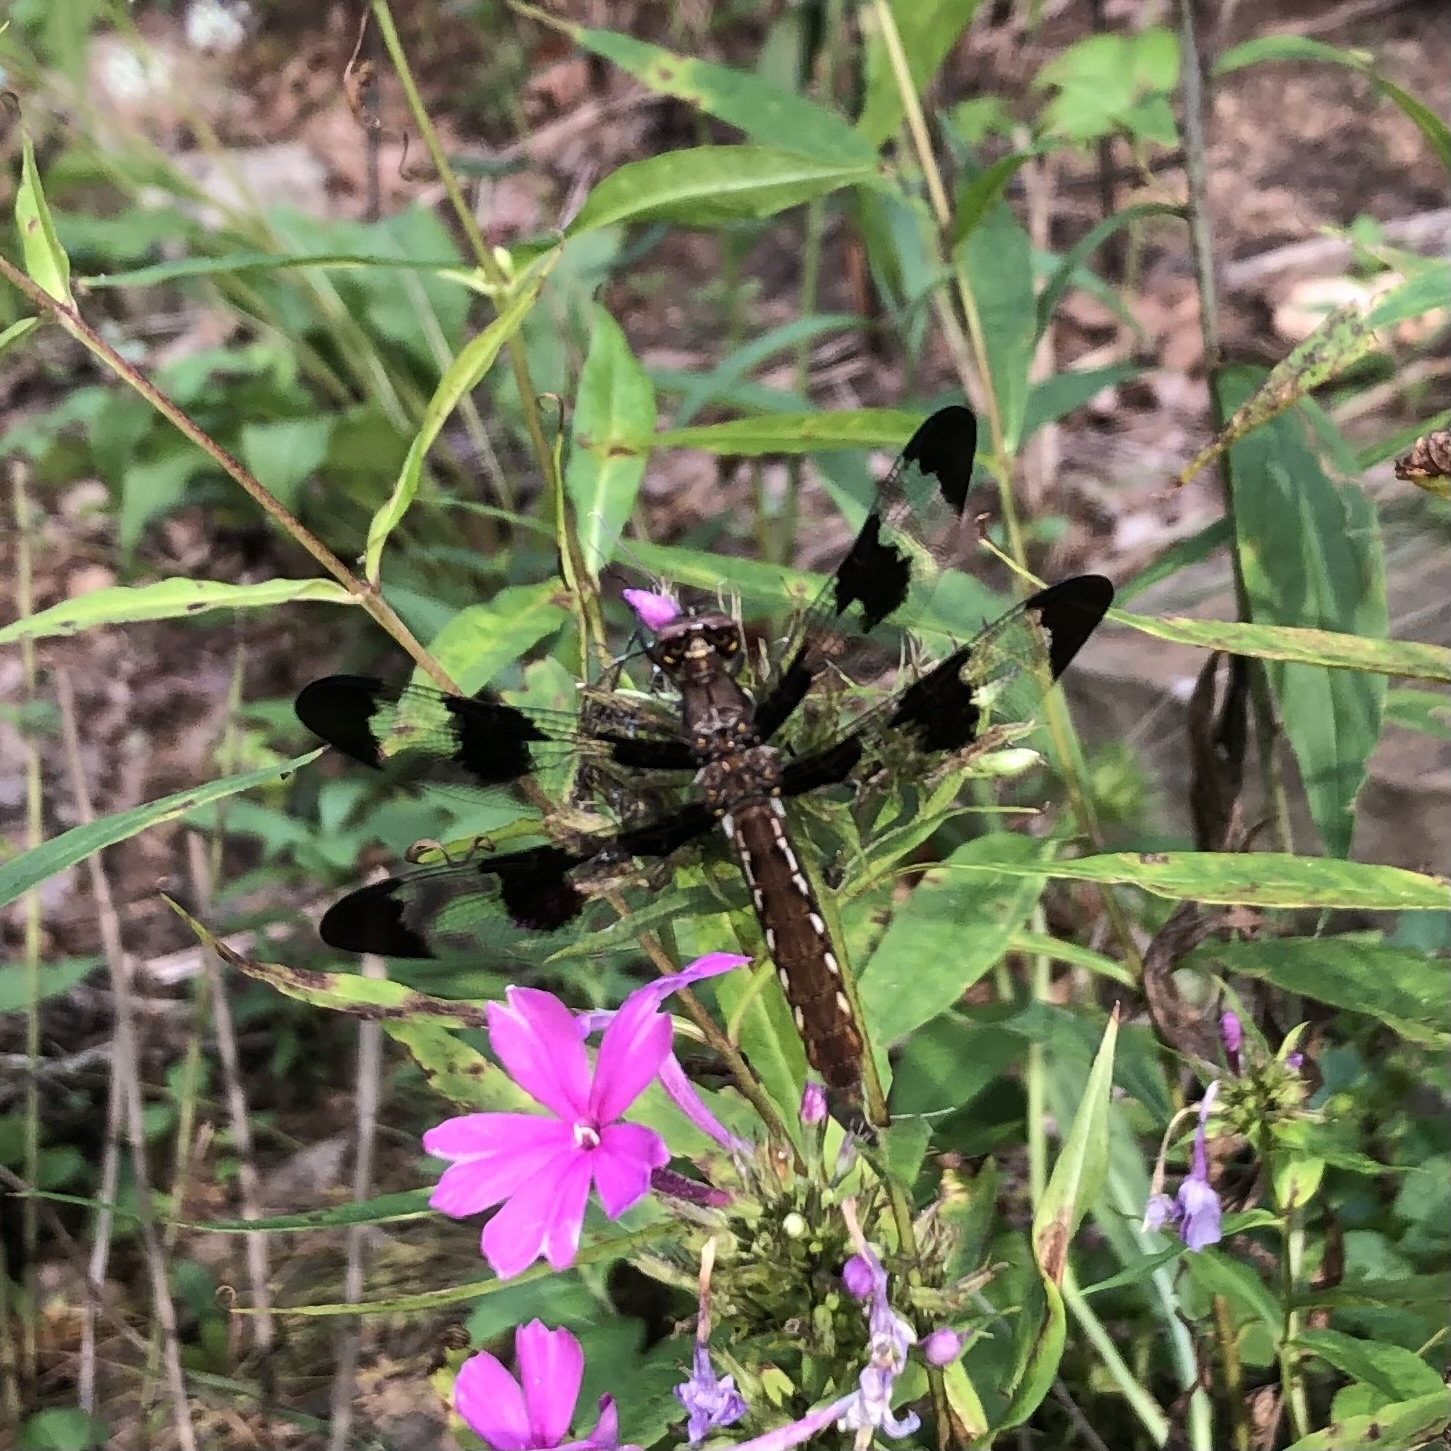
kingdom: Animalia
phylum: Arthropoda
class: Insecta
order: Odonata
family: Libellulidae
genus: Plathemis
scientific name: Plathemis lydia
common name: Common whitetail
